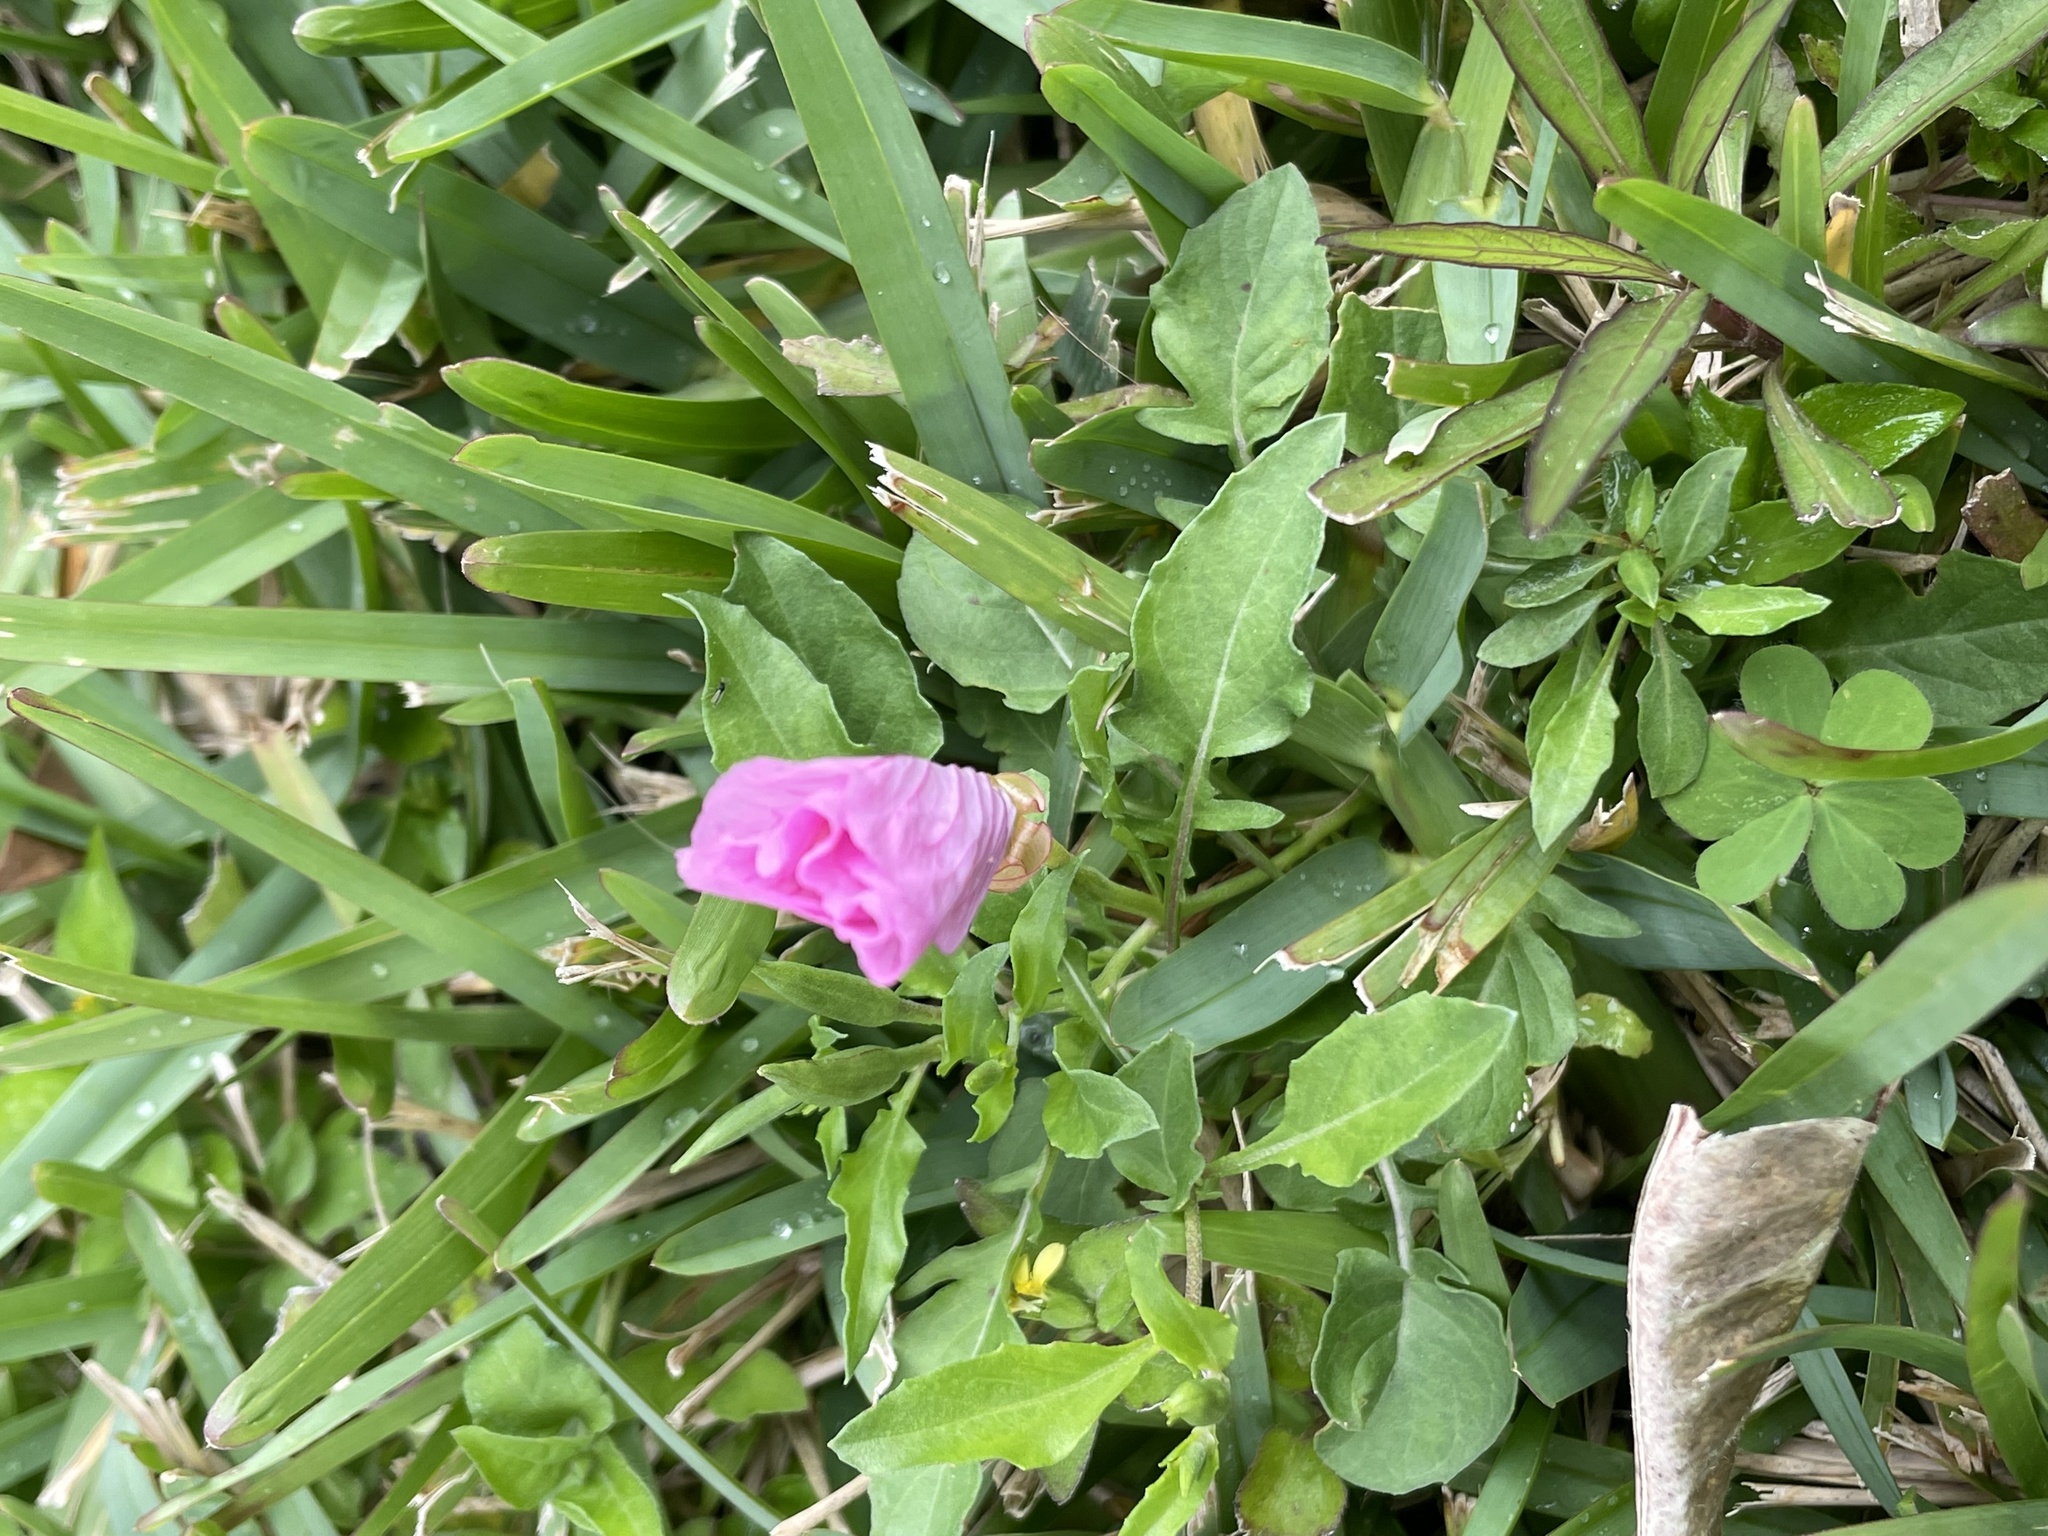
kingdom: Plantae
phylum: Tracheophyta
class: Magnoliopsida
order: Myrtales
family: Onagraceae
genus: Oenothera
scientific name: Oenothera speciosa
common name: White evening-primrose
